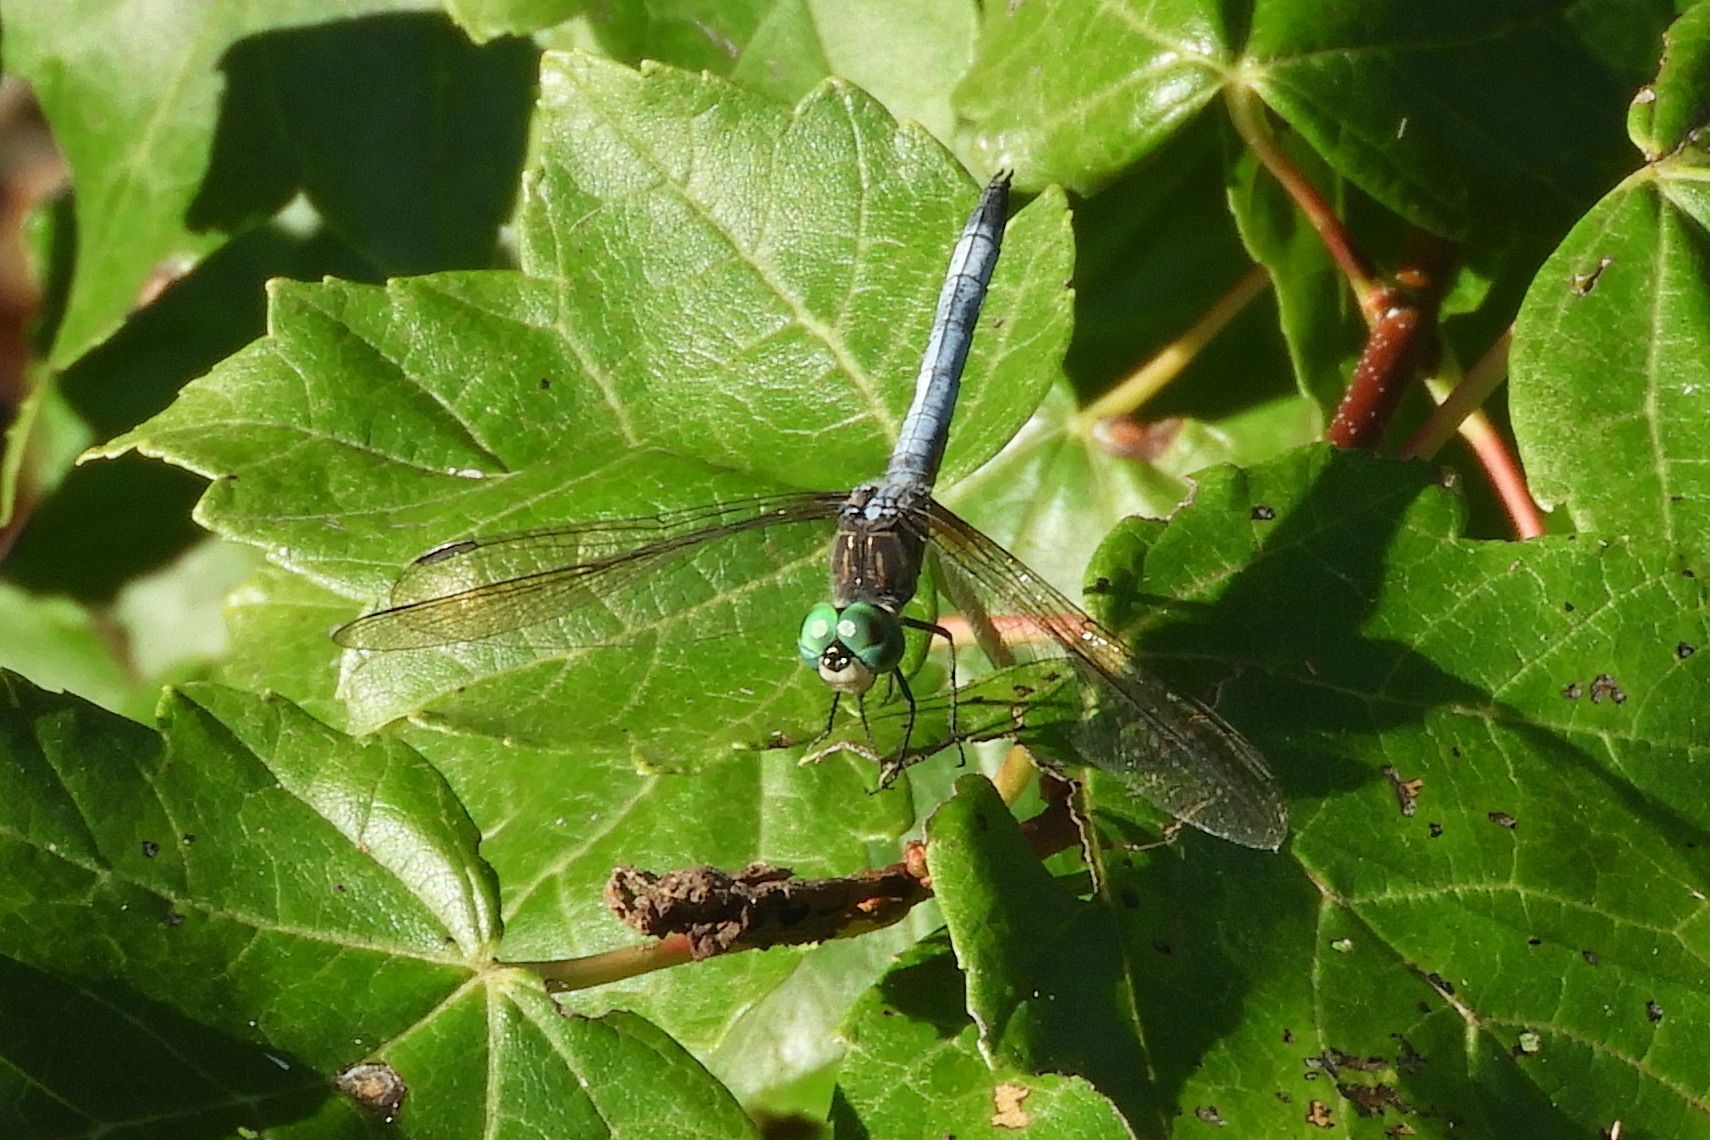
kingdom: Animalia
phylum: Arthropoda
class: Insecta
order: Odonata
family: Libellulidae
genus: Pachydiplax
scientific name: Pachydiplax longipennis
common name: Blue dasher
